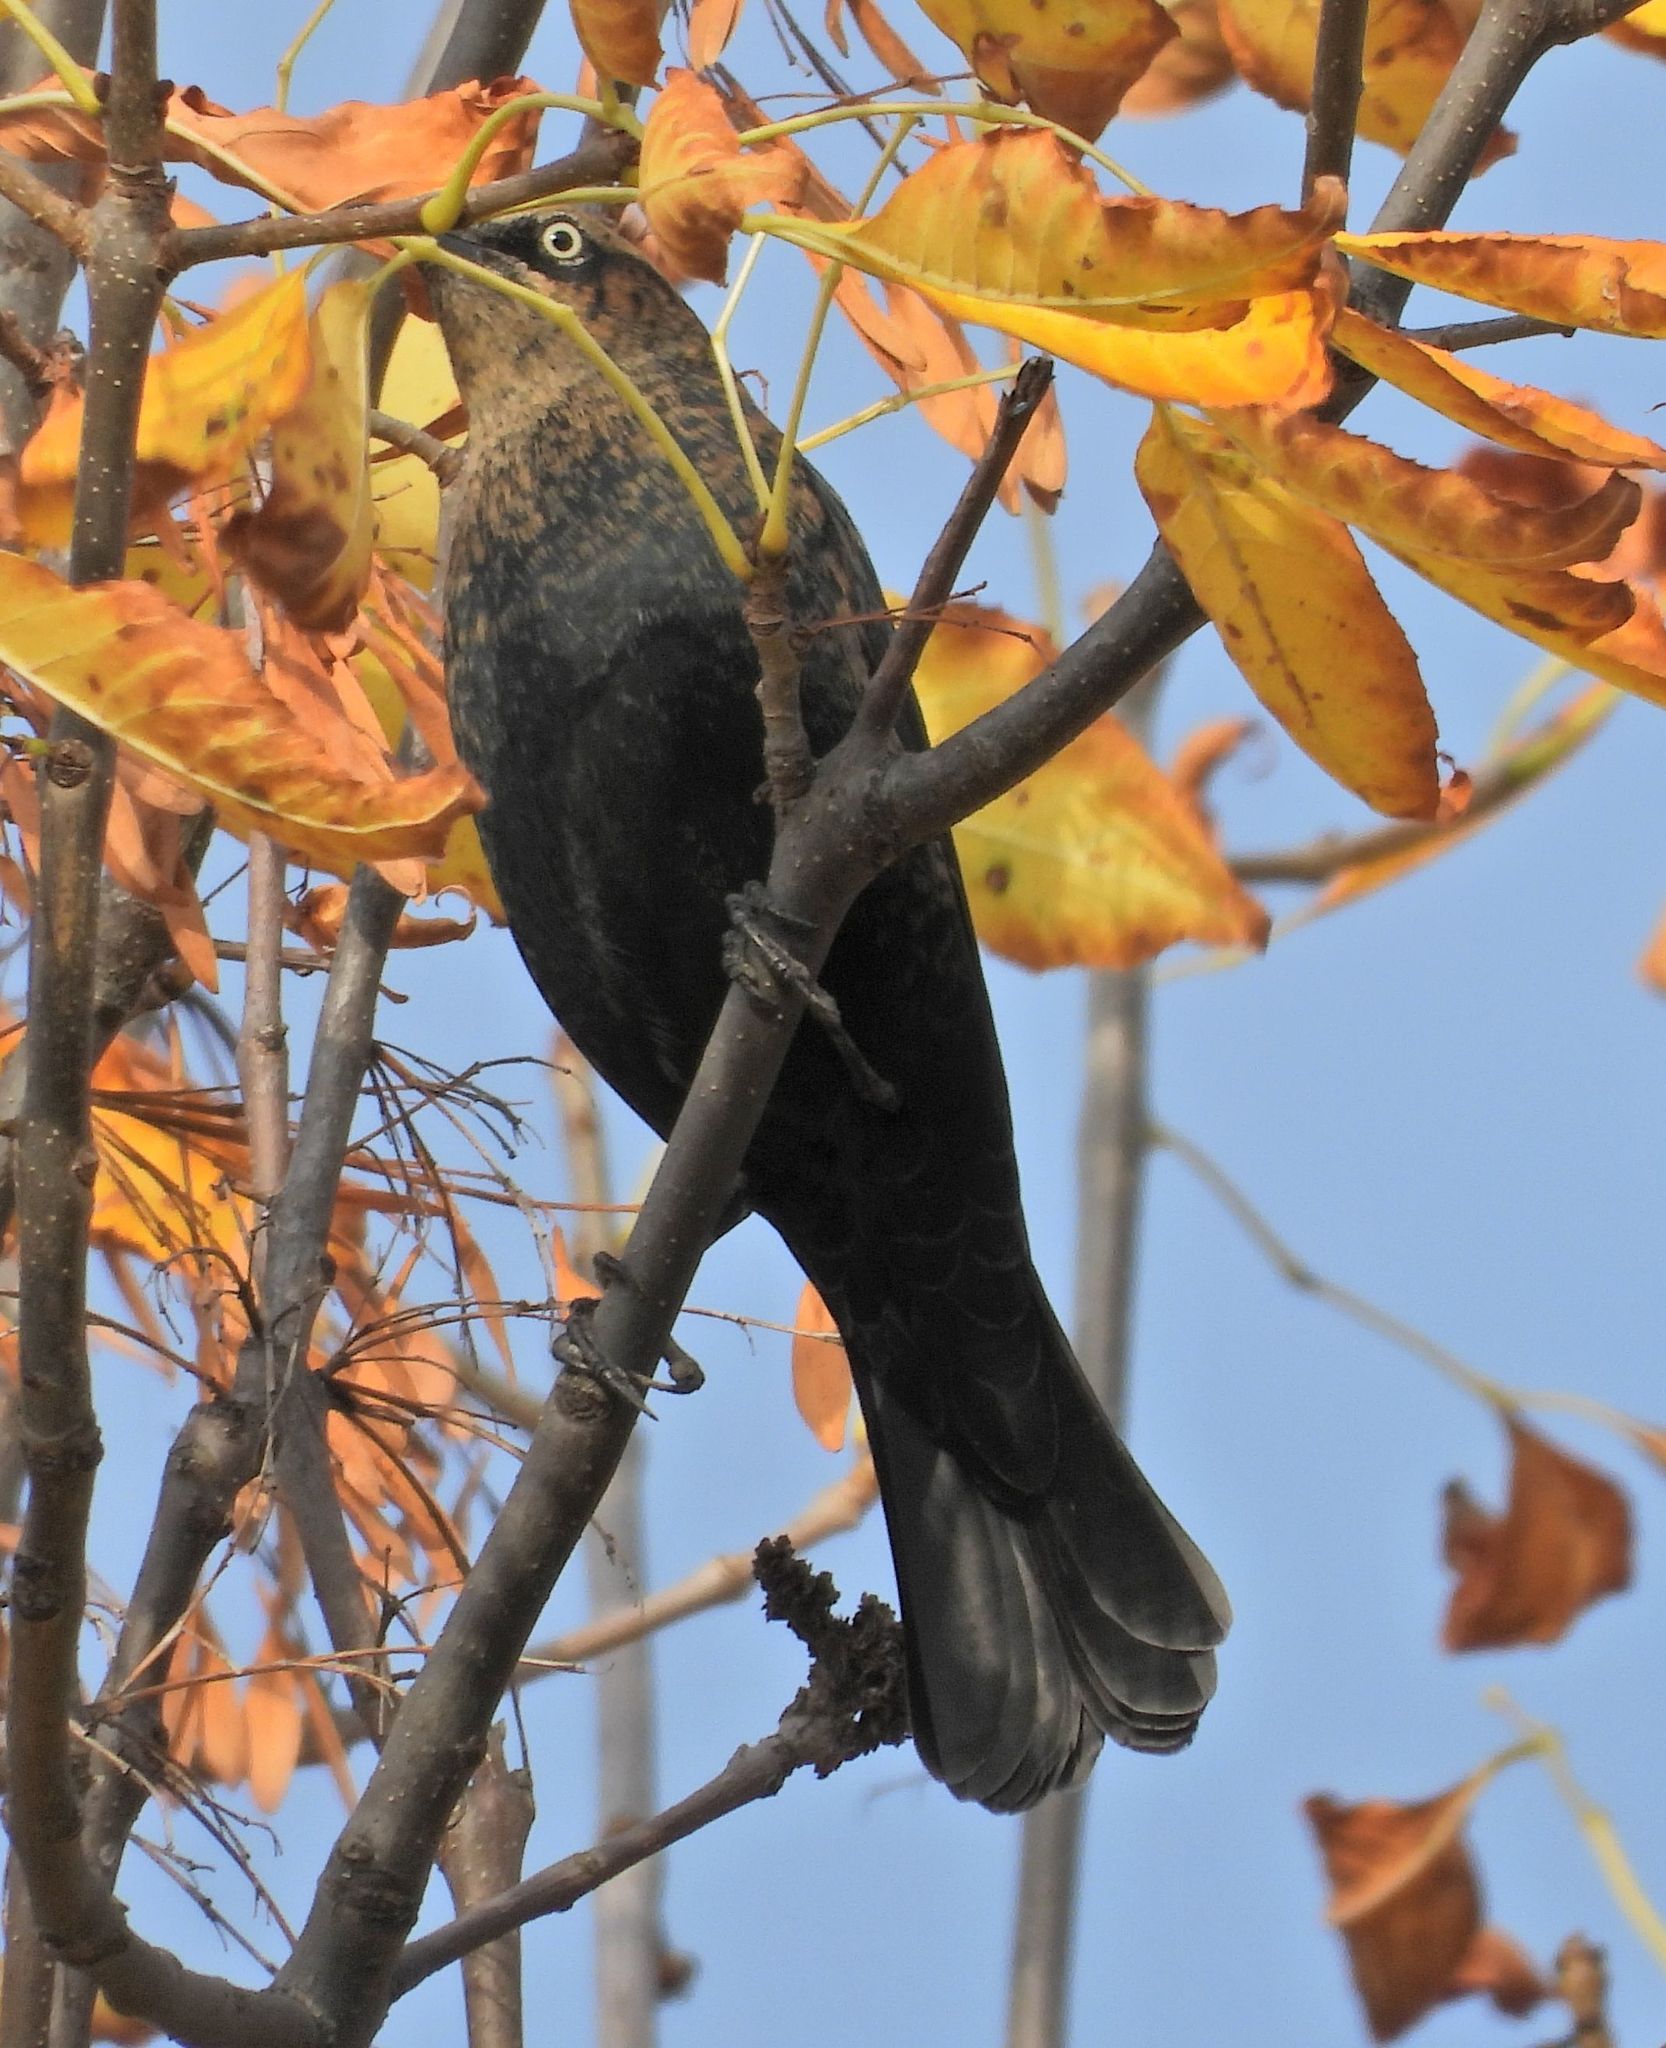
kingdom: Animalia
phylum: Chordata
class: Aves
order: Passeriformes
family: Icteridae
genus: Euphagus
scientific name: Euphagus carolinus
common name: Rusty blackbird
